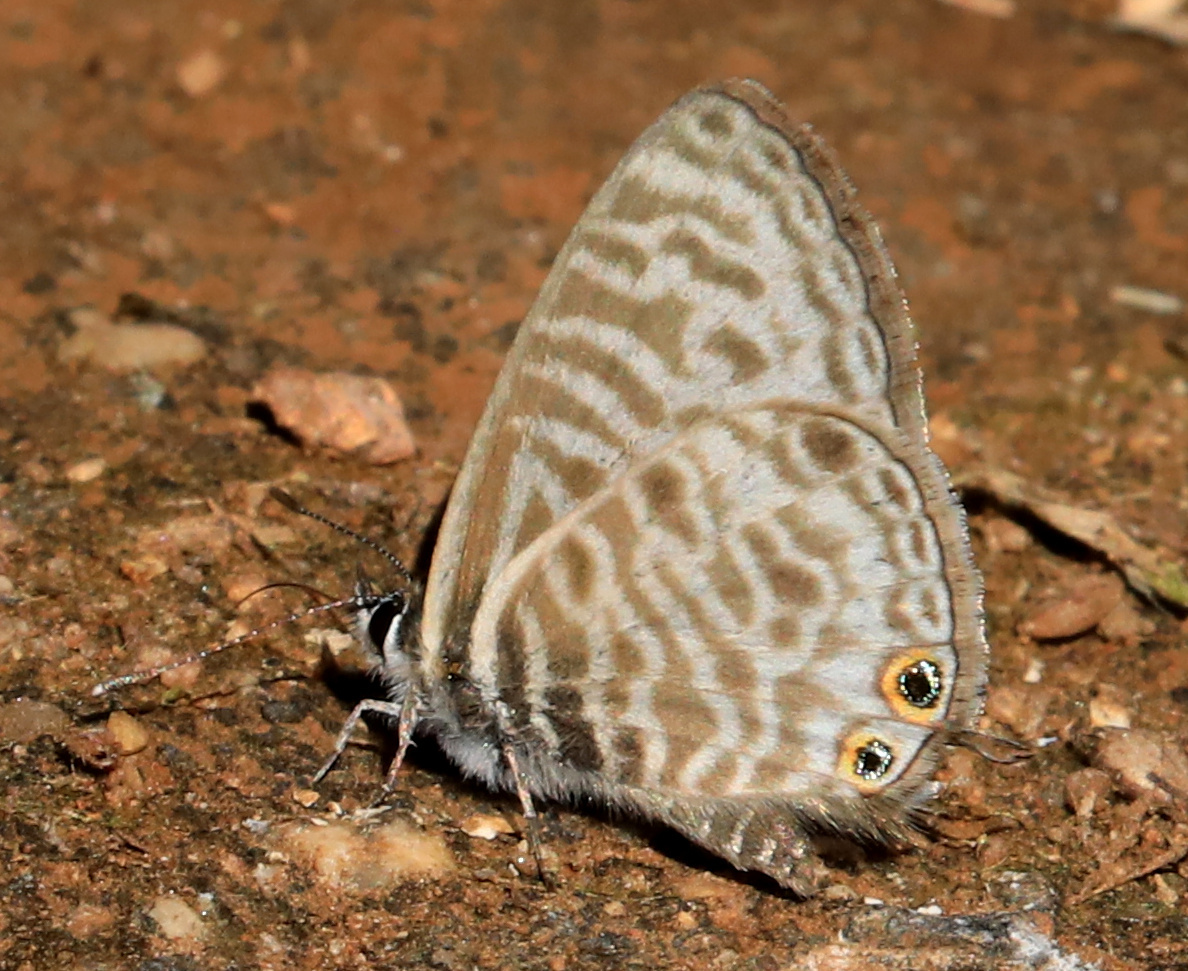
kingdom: Animalia
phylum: Arthropoda
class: Insecta
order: Lepidoptera
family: Lycaenidae
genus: Leptotes
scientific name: Leptotes
